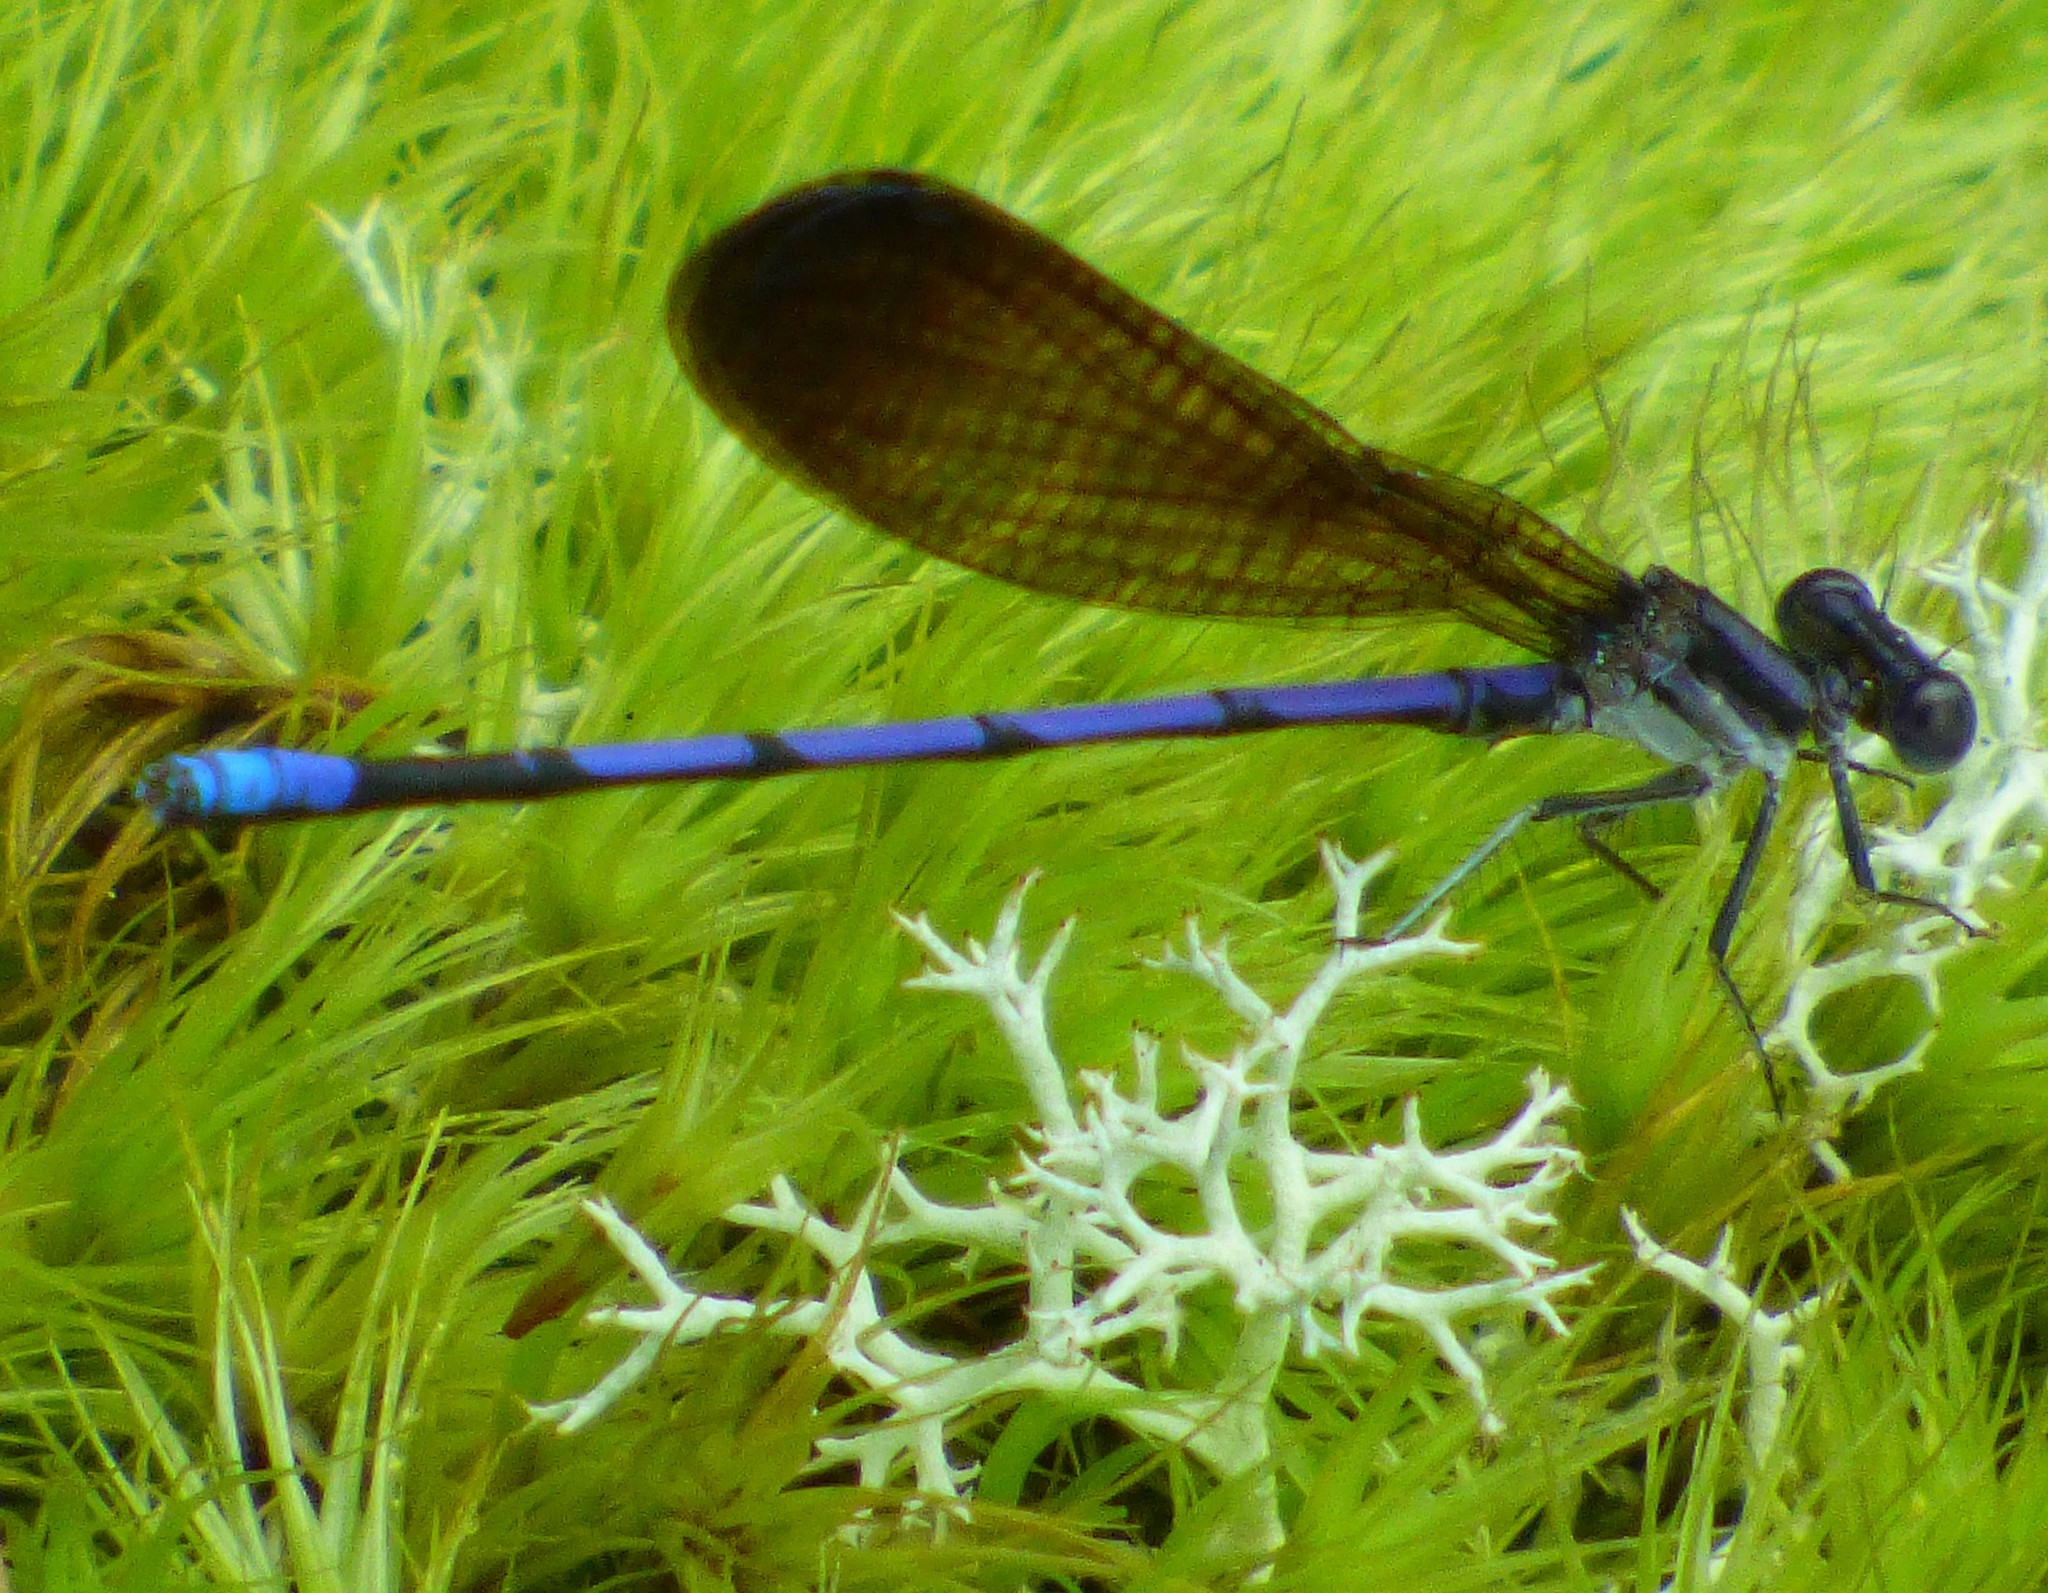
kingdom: Animalia
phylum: Arthropoda
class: Insecta
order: Odonata
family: Coenagrionidae
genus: Argia
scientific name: Argia fumipennis
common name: Variable dancer
